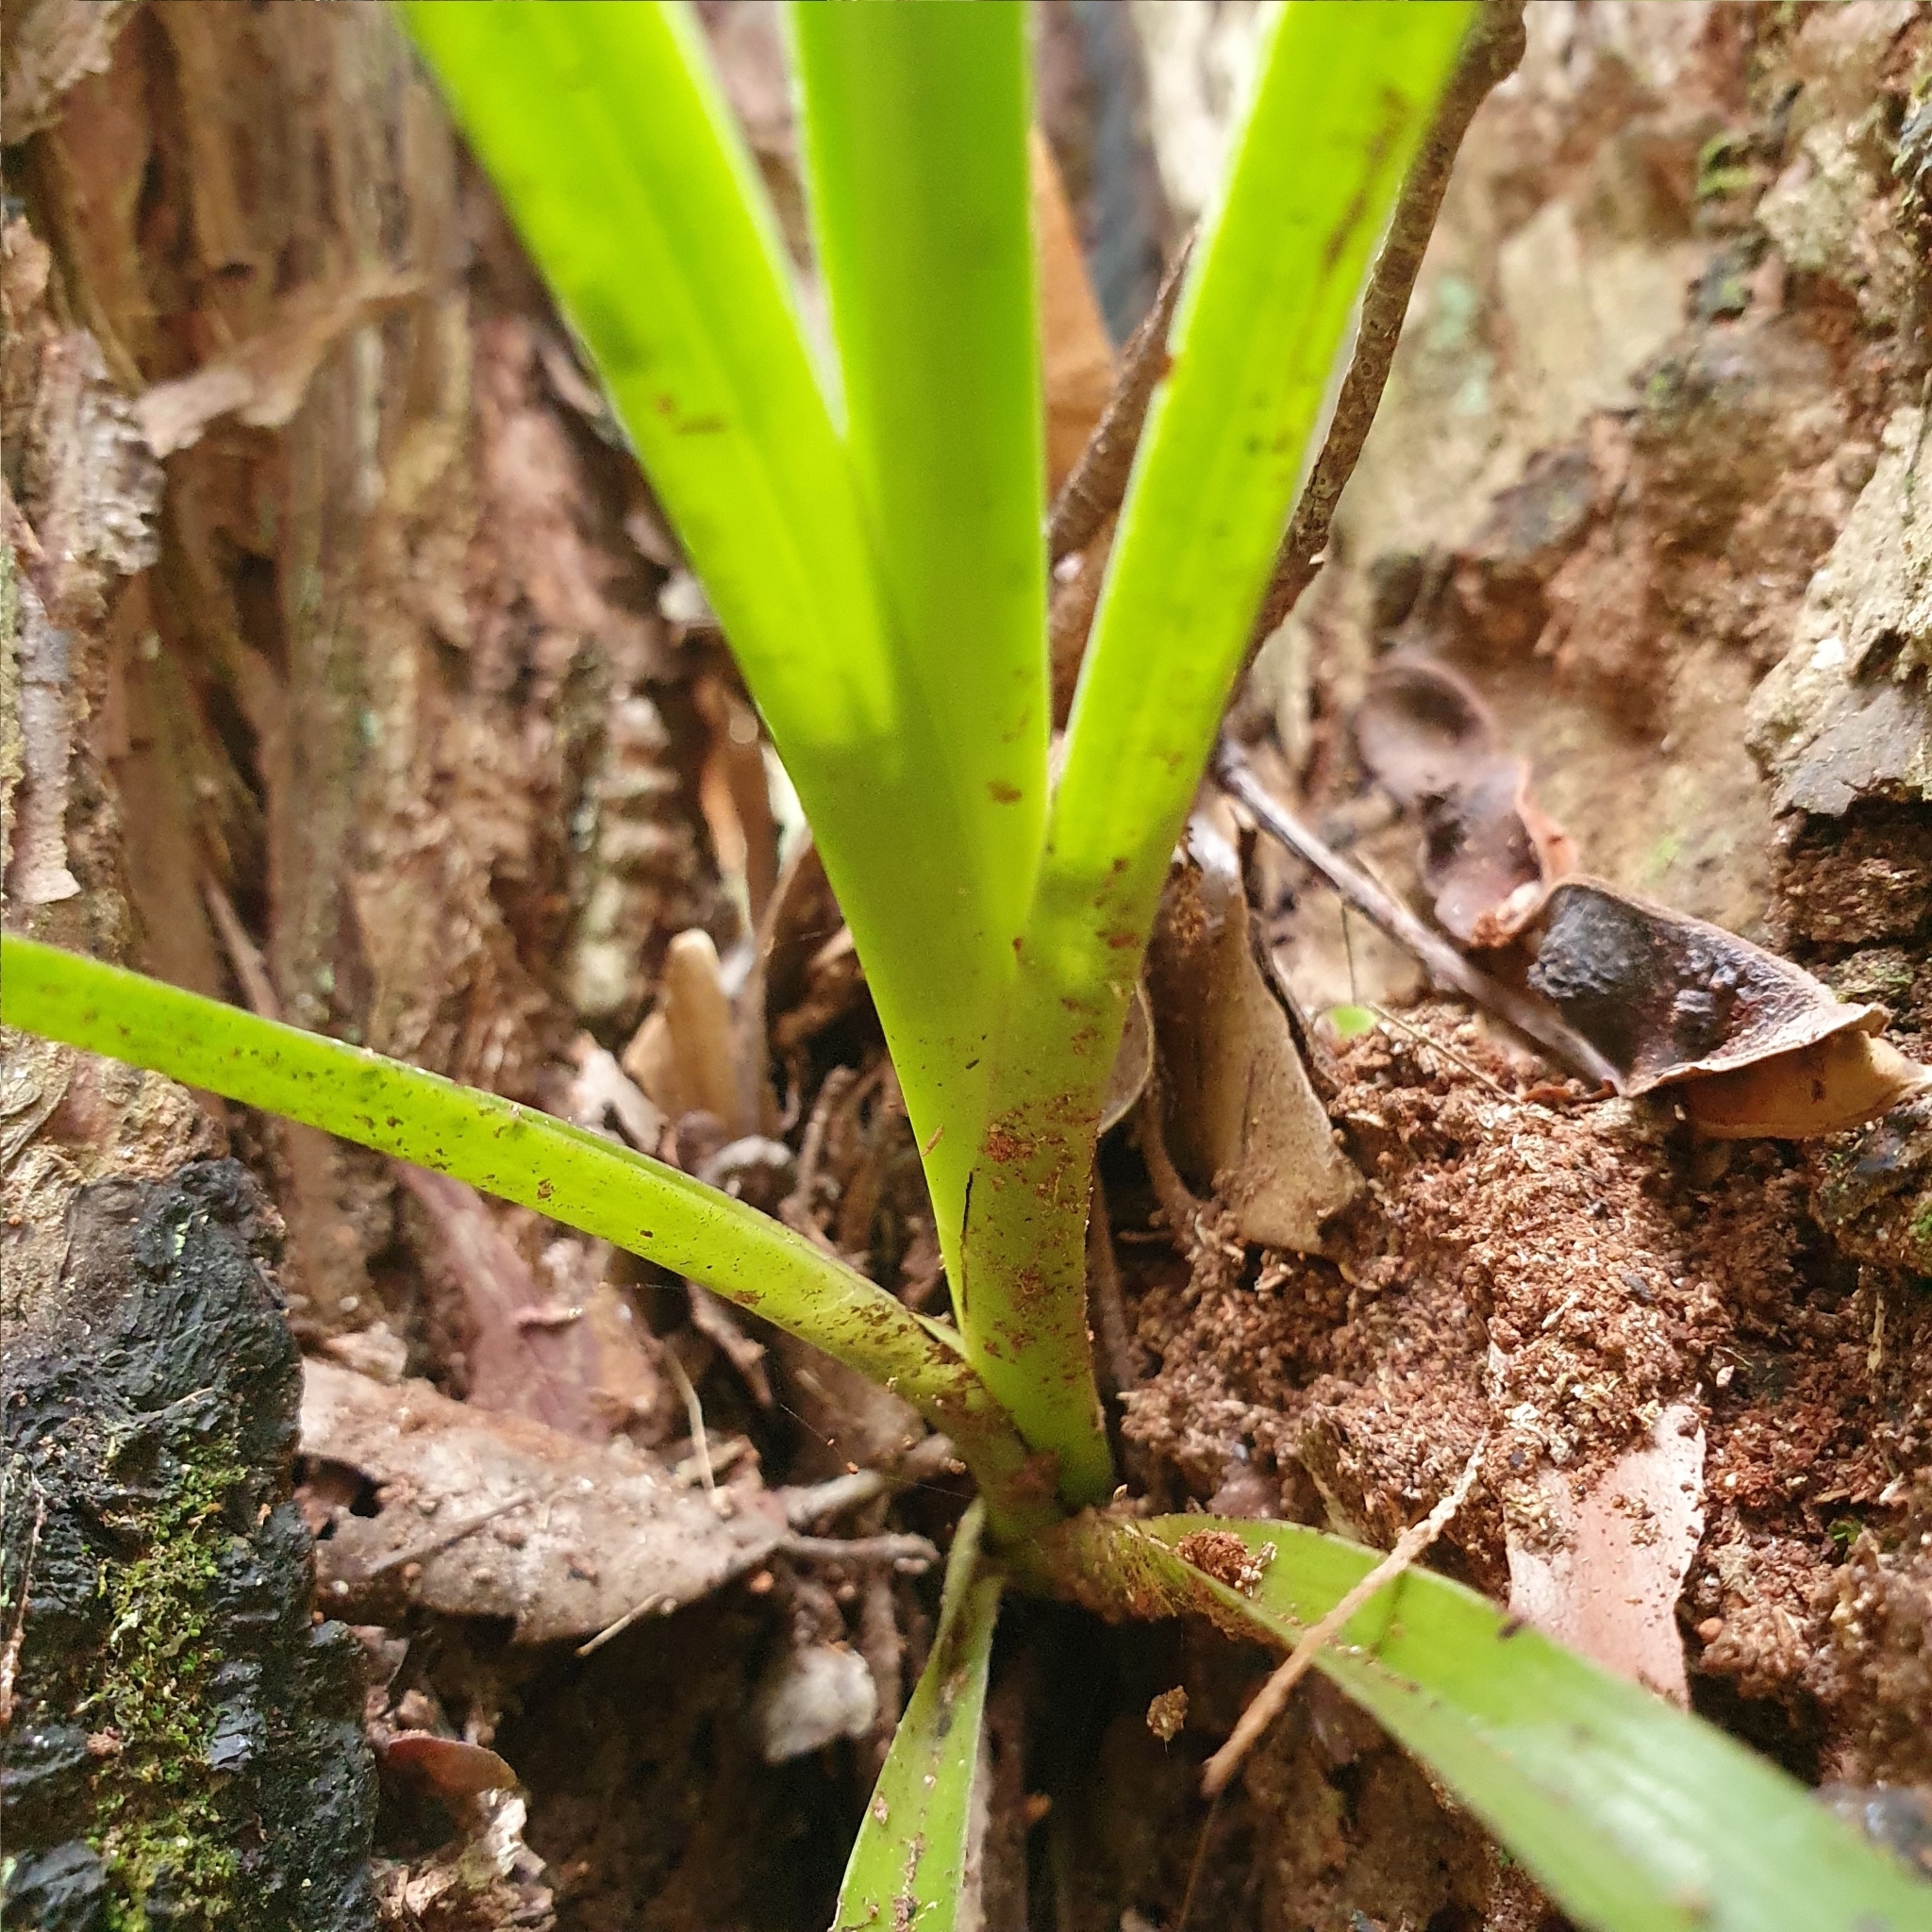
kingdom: Plantae
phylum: Tracheophyta
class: Liliopsida
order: Asparagales
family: Orchidaceae
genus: Cymbidium
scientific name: Cymbidium suave
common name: Snake orchid
